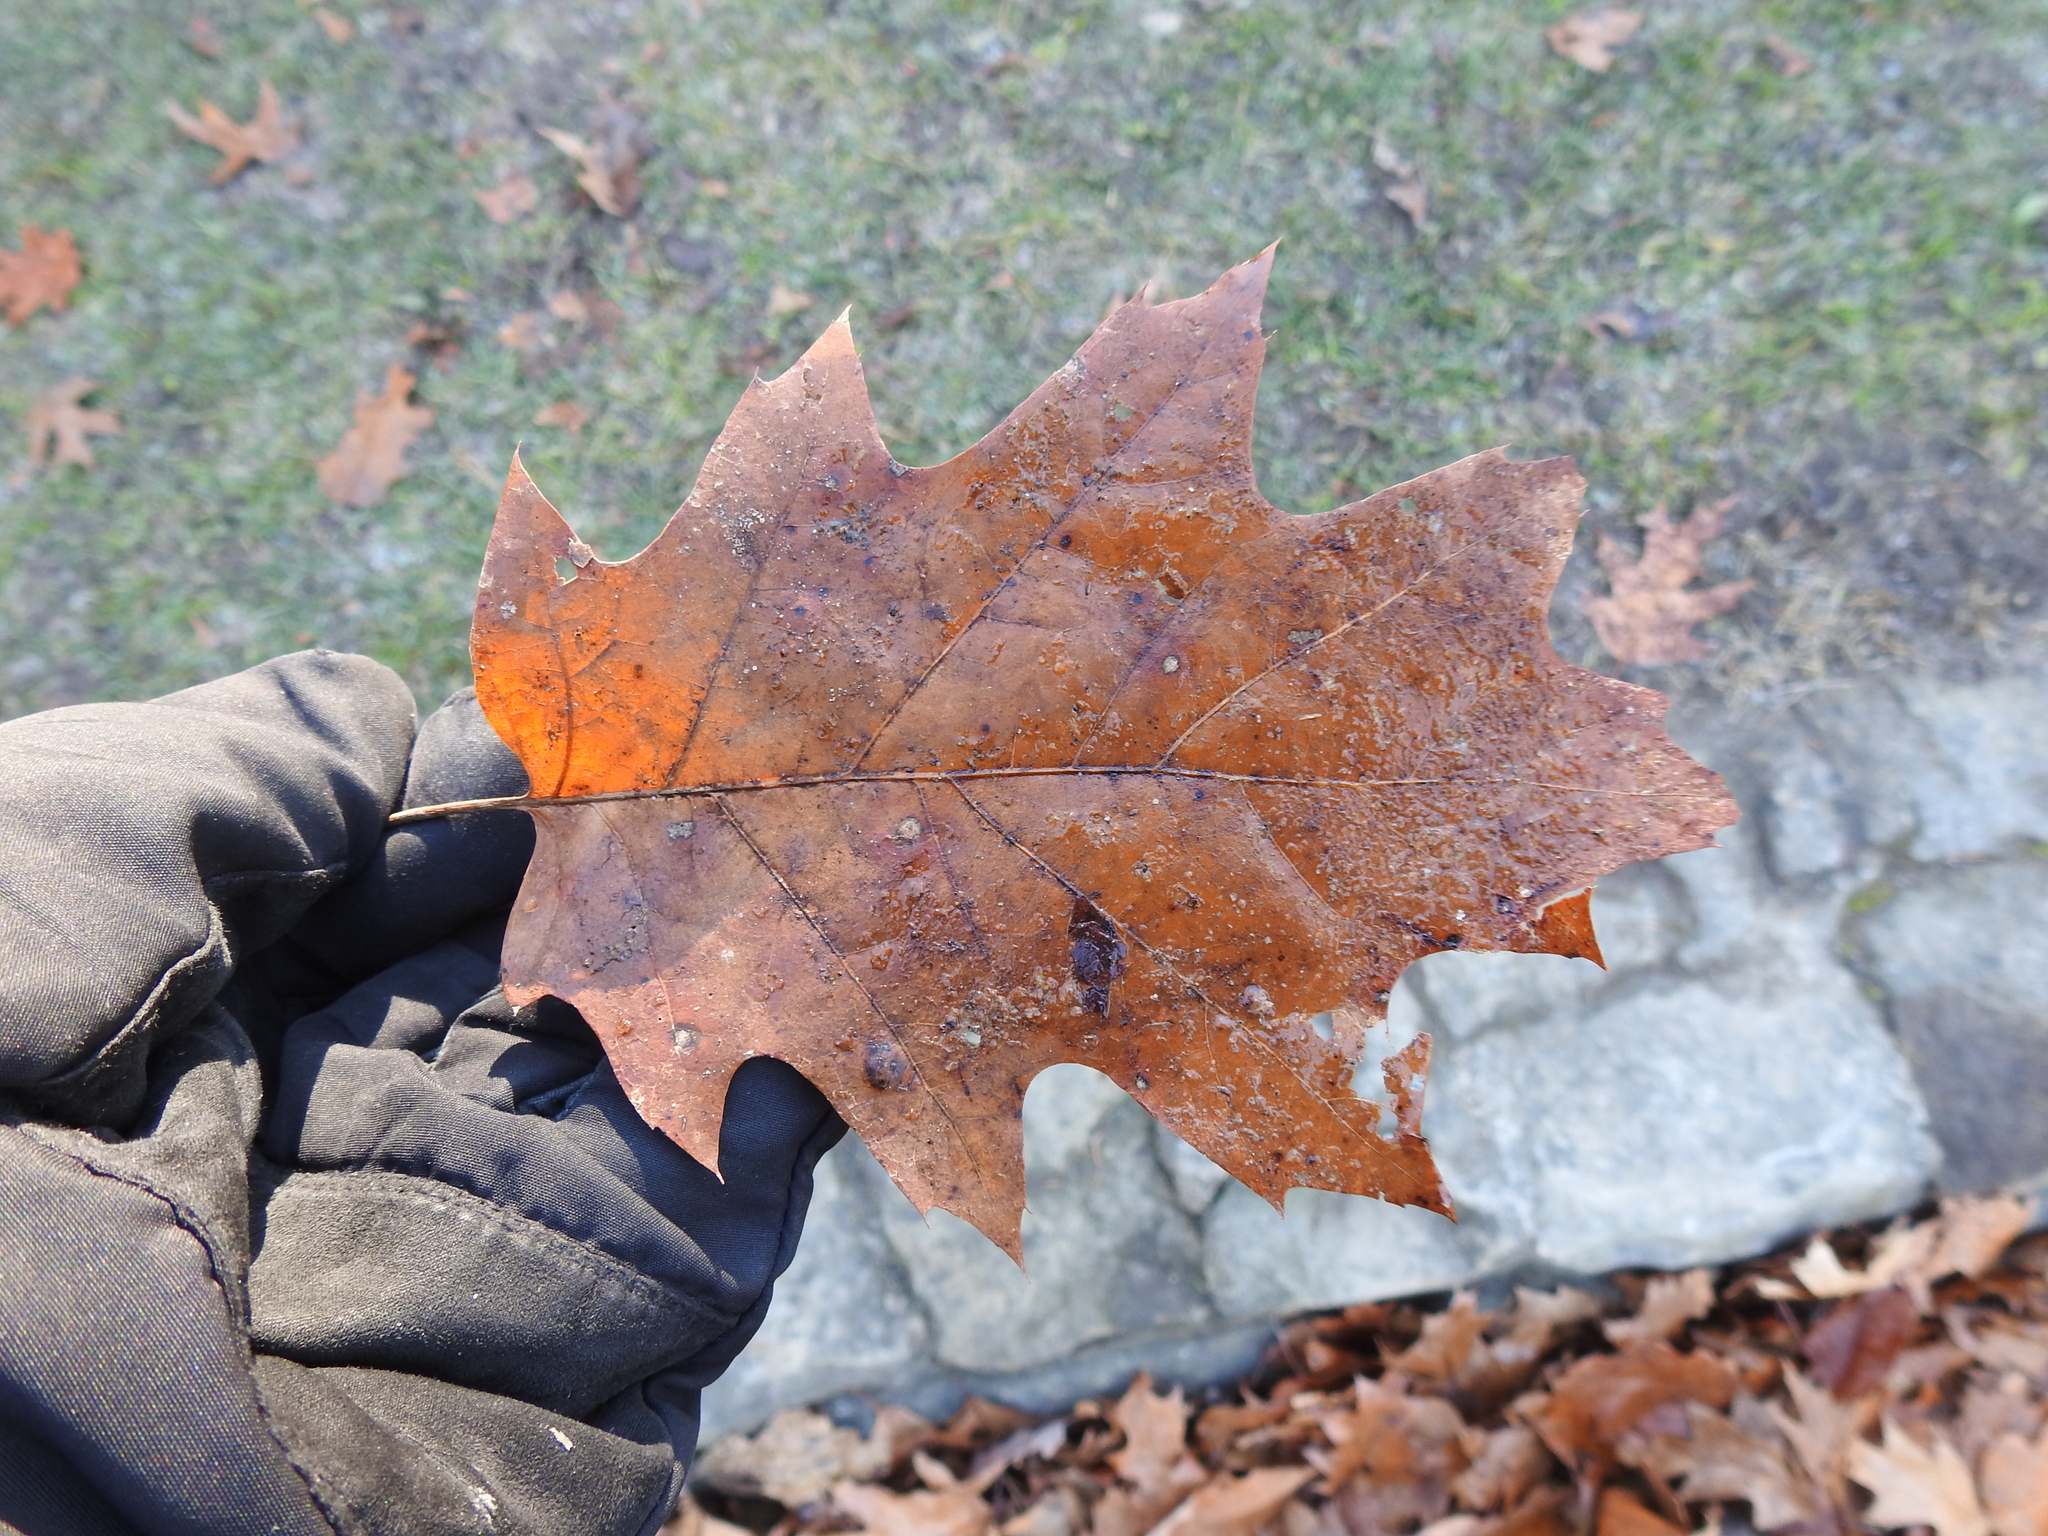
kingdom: Plantae
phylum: Tracheophyta
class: Magnoliopsida
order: Fagales
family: Fagaceae
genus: Quercus
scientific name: Quercus rubra
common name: Red oak
